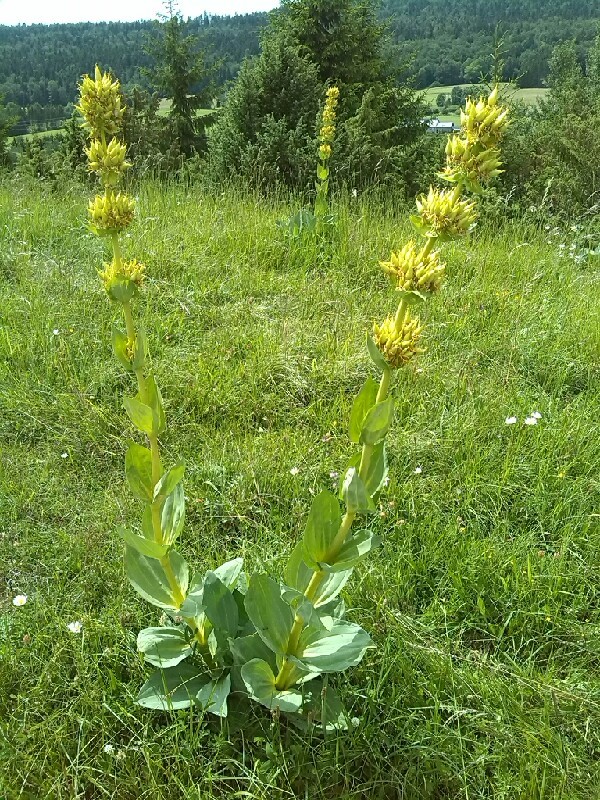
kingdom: Plantae
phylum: Tracheophyta
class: Magnoliopsida
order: Gentianales
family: Gentianaceae
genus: Gentiana
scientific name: Gentiana lutea
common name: Great yellow gentian
